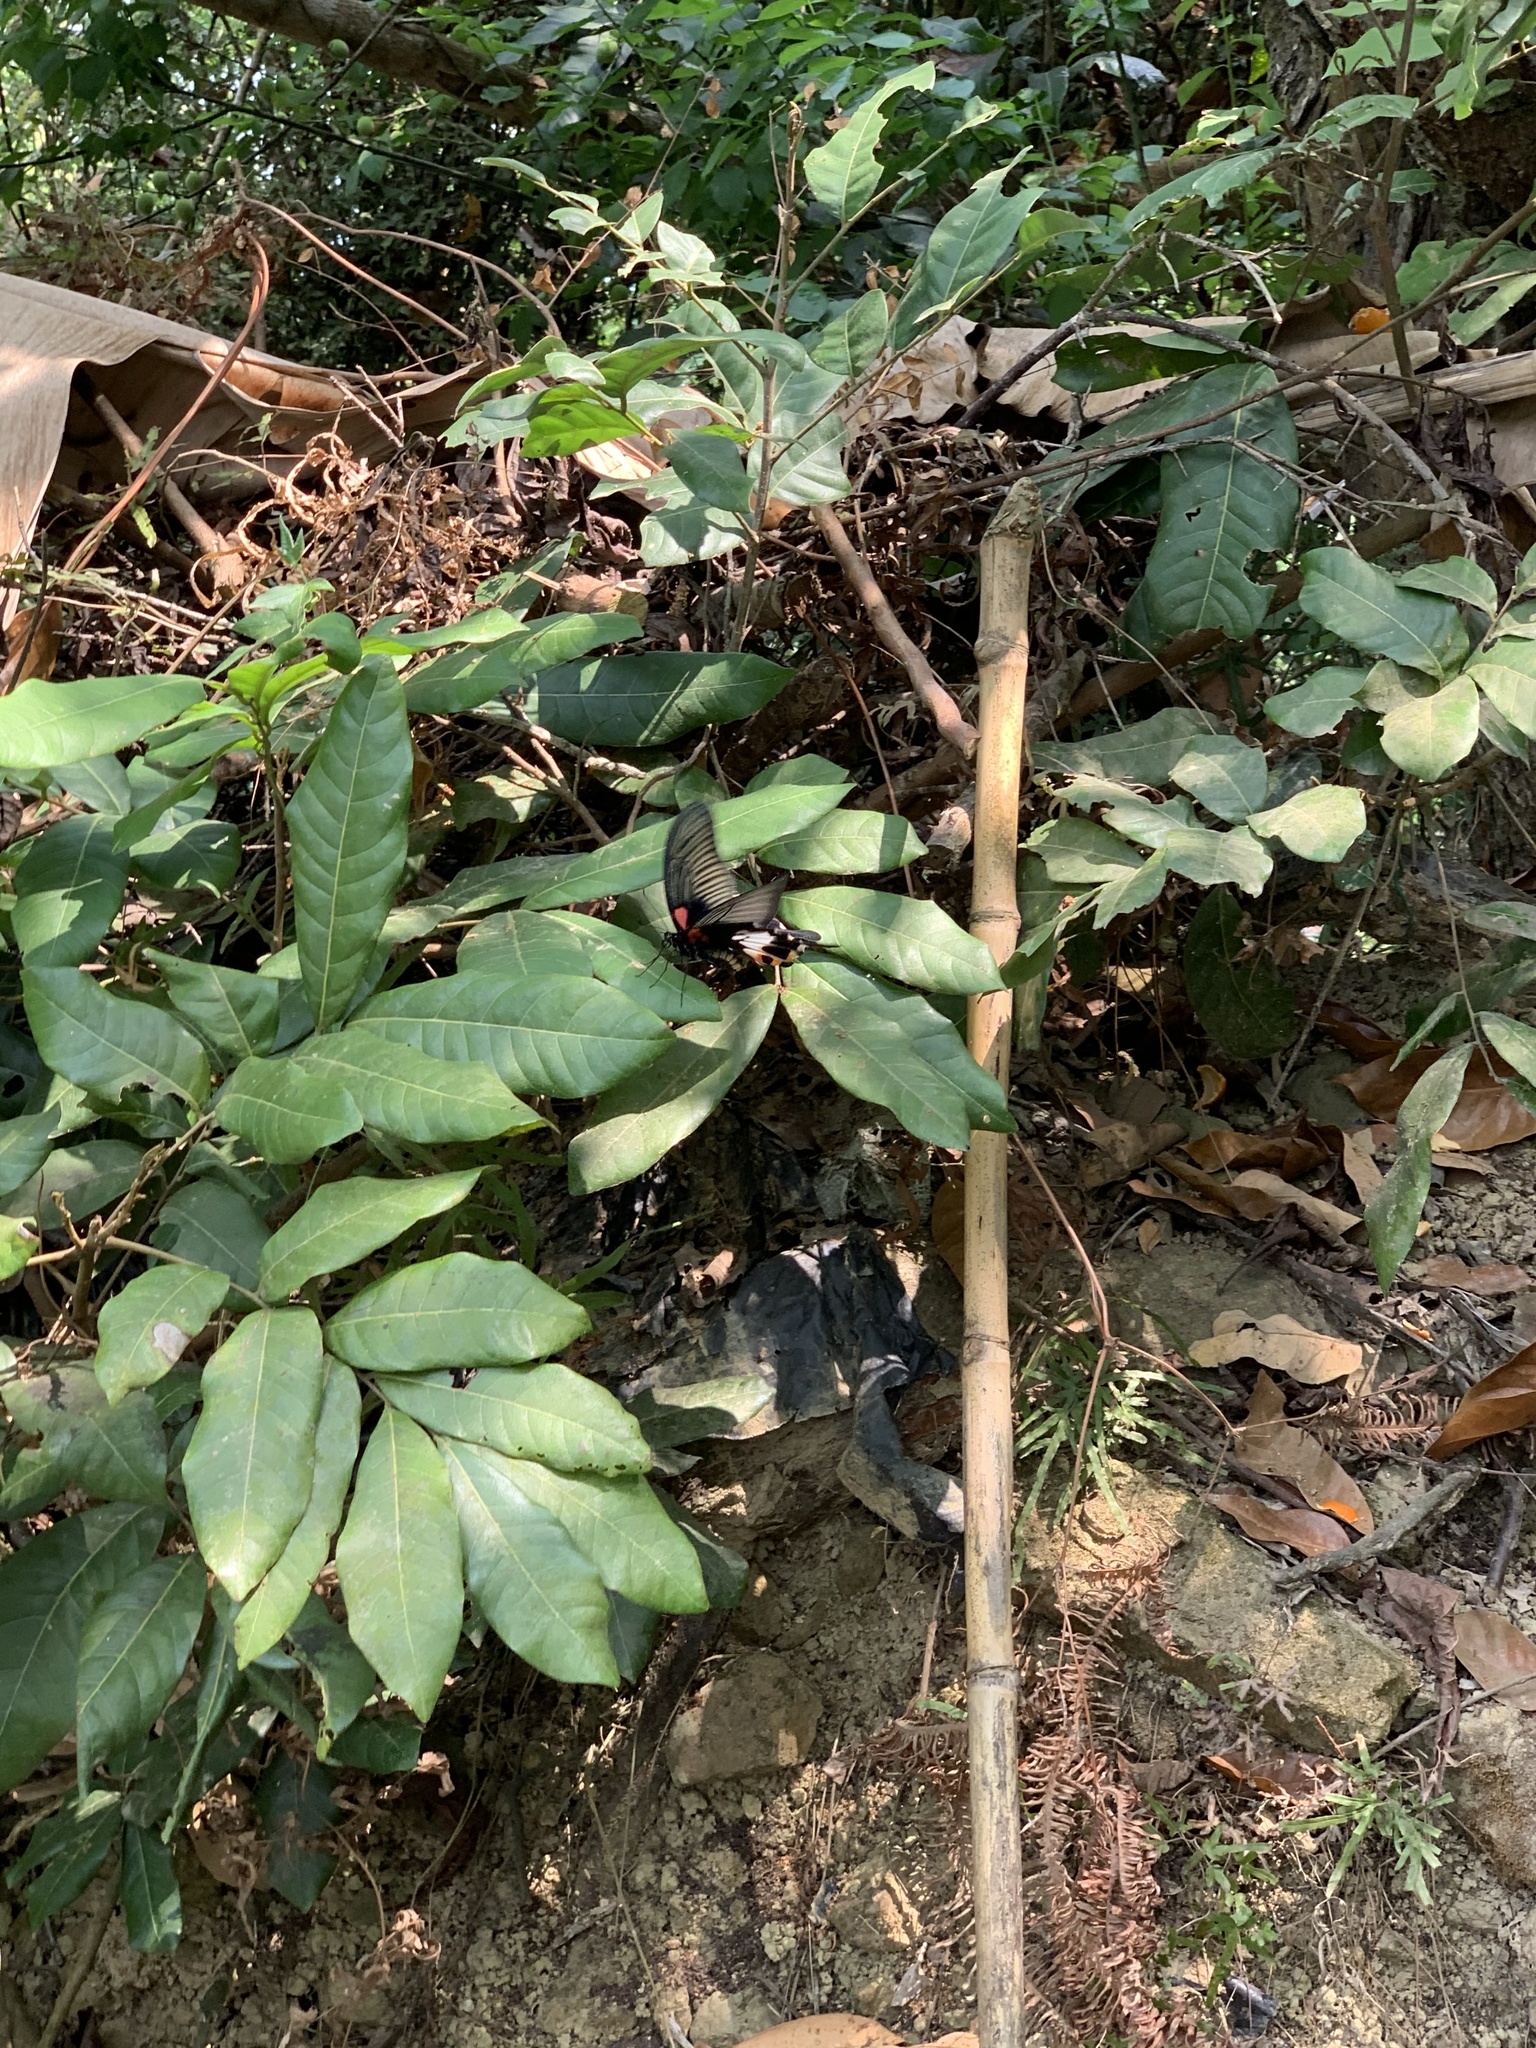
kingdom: Animalia
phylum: Arthropoda
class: Insecta
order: Lepidoptera
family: Papilionidae
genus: Papilio
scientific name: Papilio memnon
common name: Great mormon
